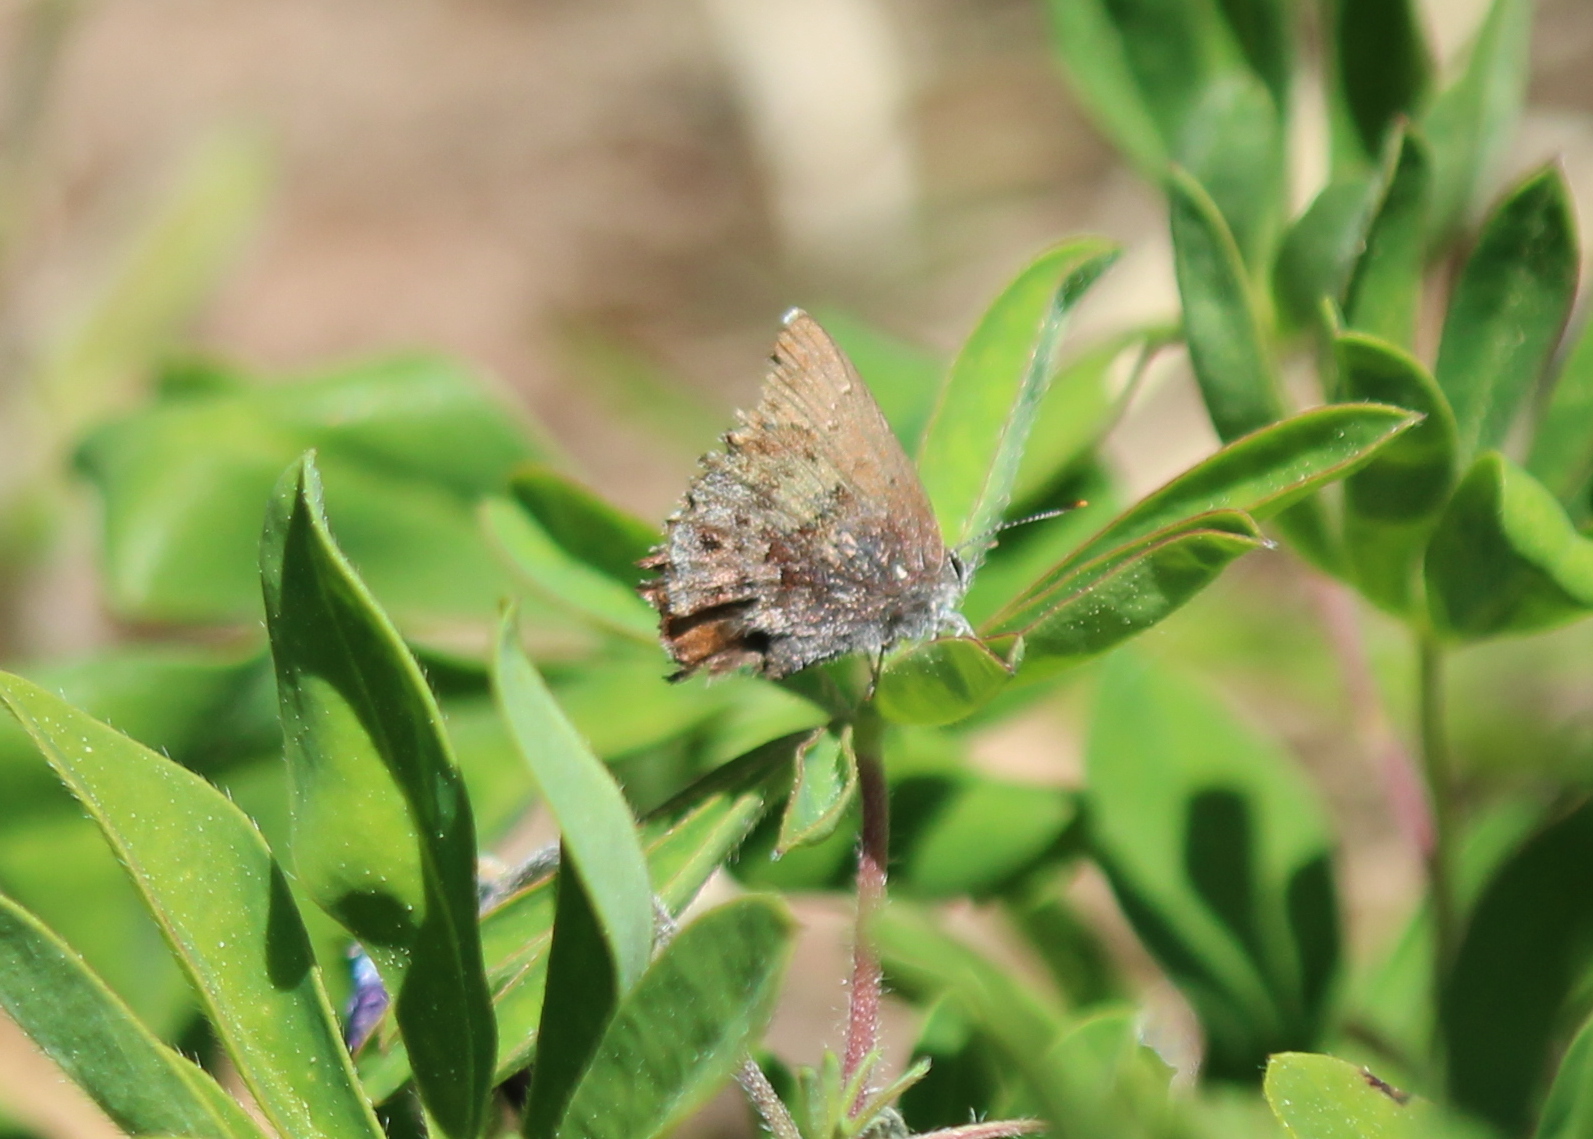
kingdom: Animalia
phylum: Arthropoda
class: Insecta
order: Lepidoptera
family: Lycaenidae
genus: Thecla
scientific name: Thecla irus
